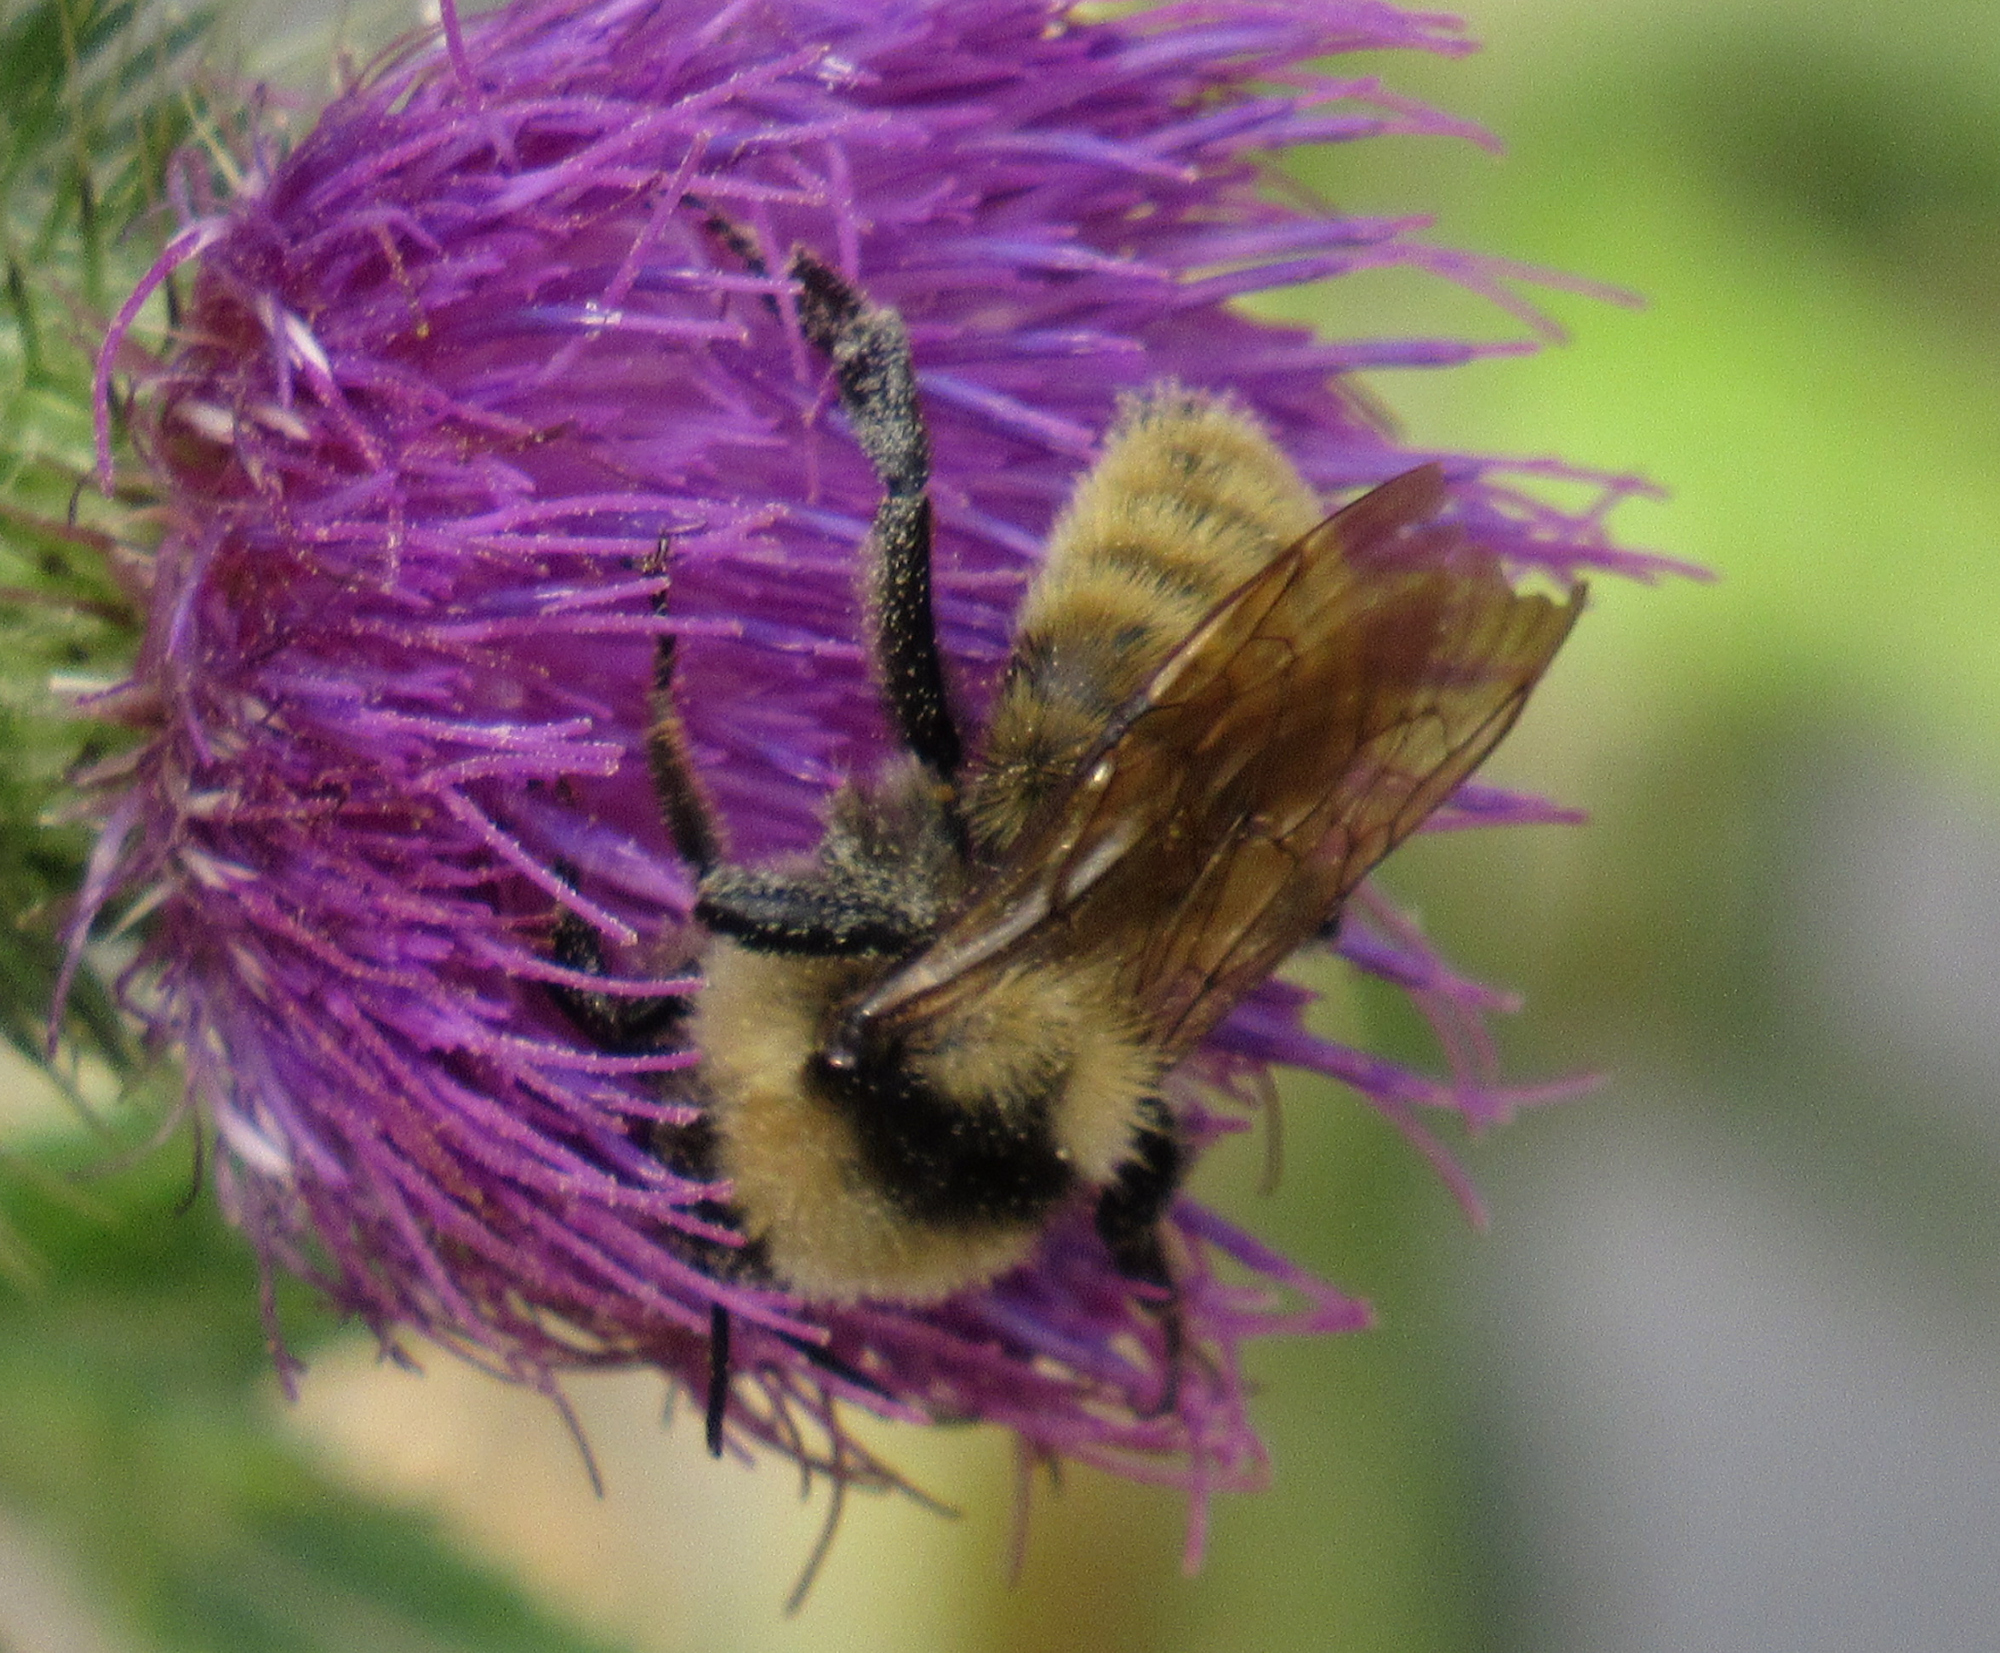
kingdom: Animalia
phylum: Arthropoda
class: Insecta
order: Hymenoptera
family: Apidae
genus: Bombus
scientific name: Bombus appositus
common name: White-shouldered bumble bee
